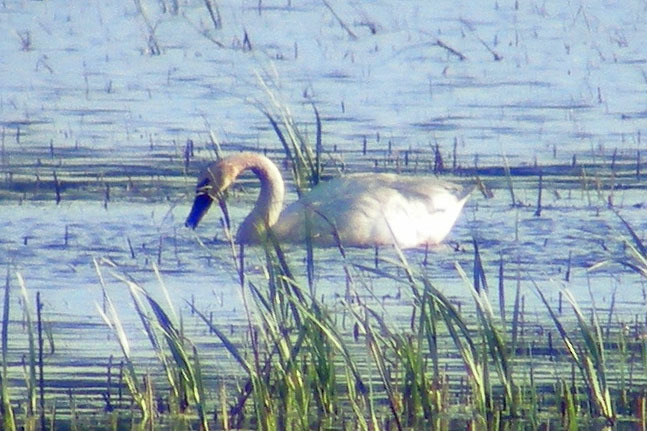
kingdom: Animalia
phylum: Chordata
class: Aves
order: Anseriformes
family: Anatidae
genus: Cygnus
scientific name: Cygnus columbianus
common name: Tundra swan
